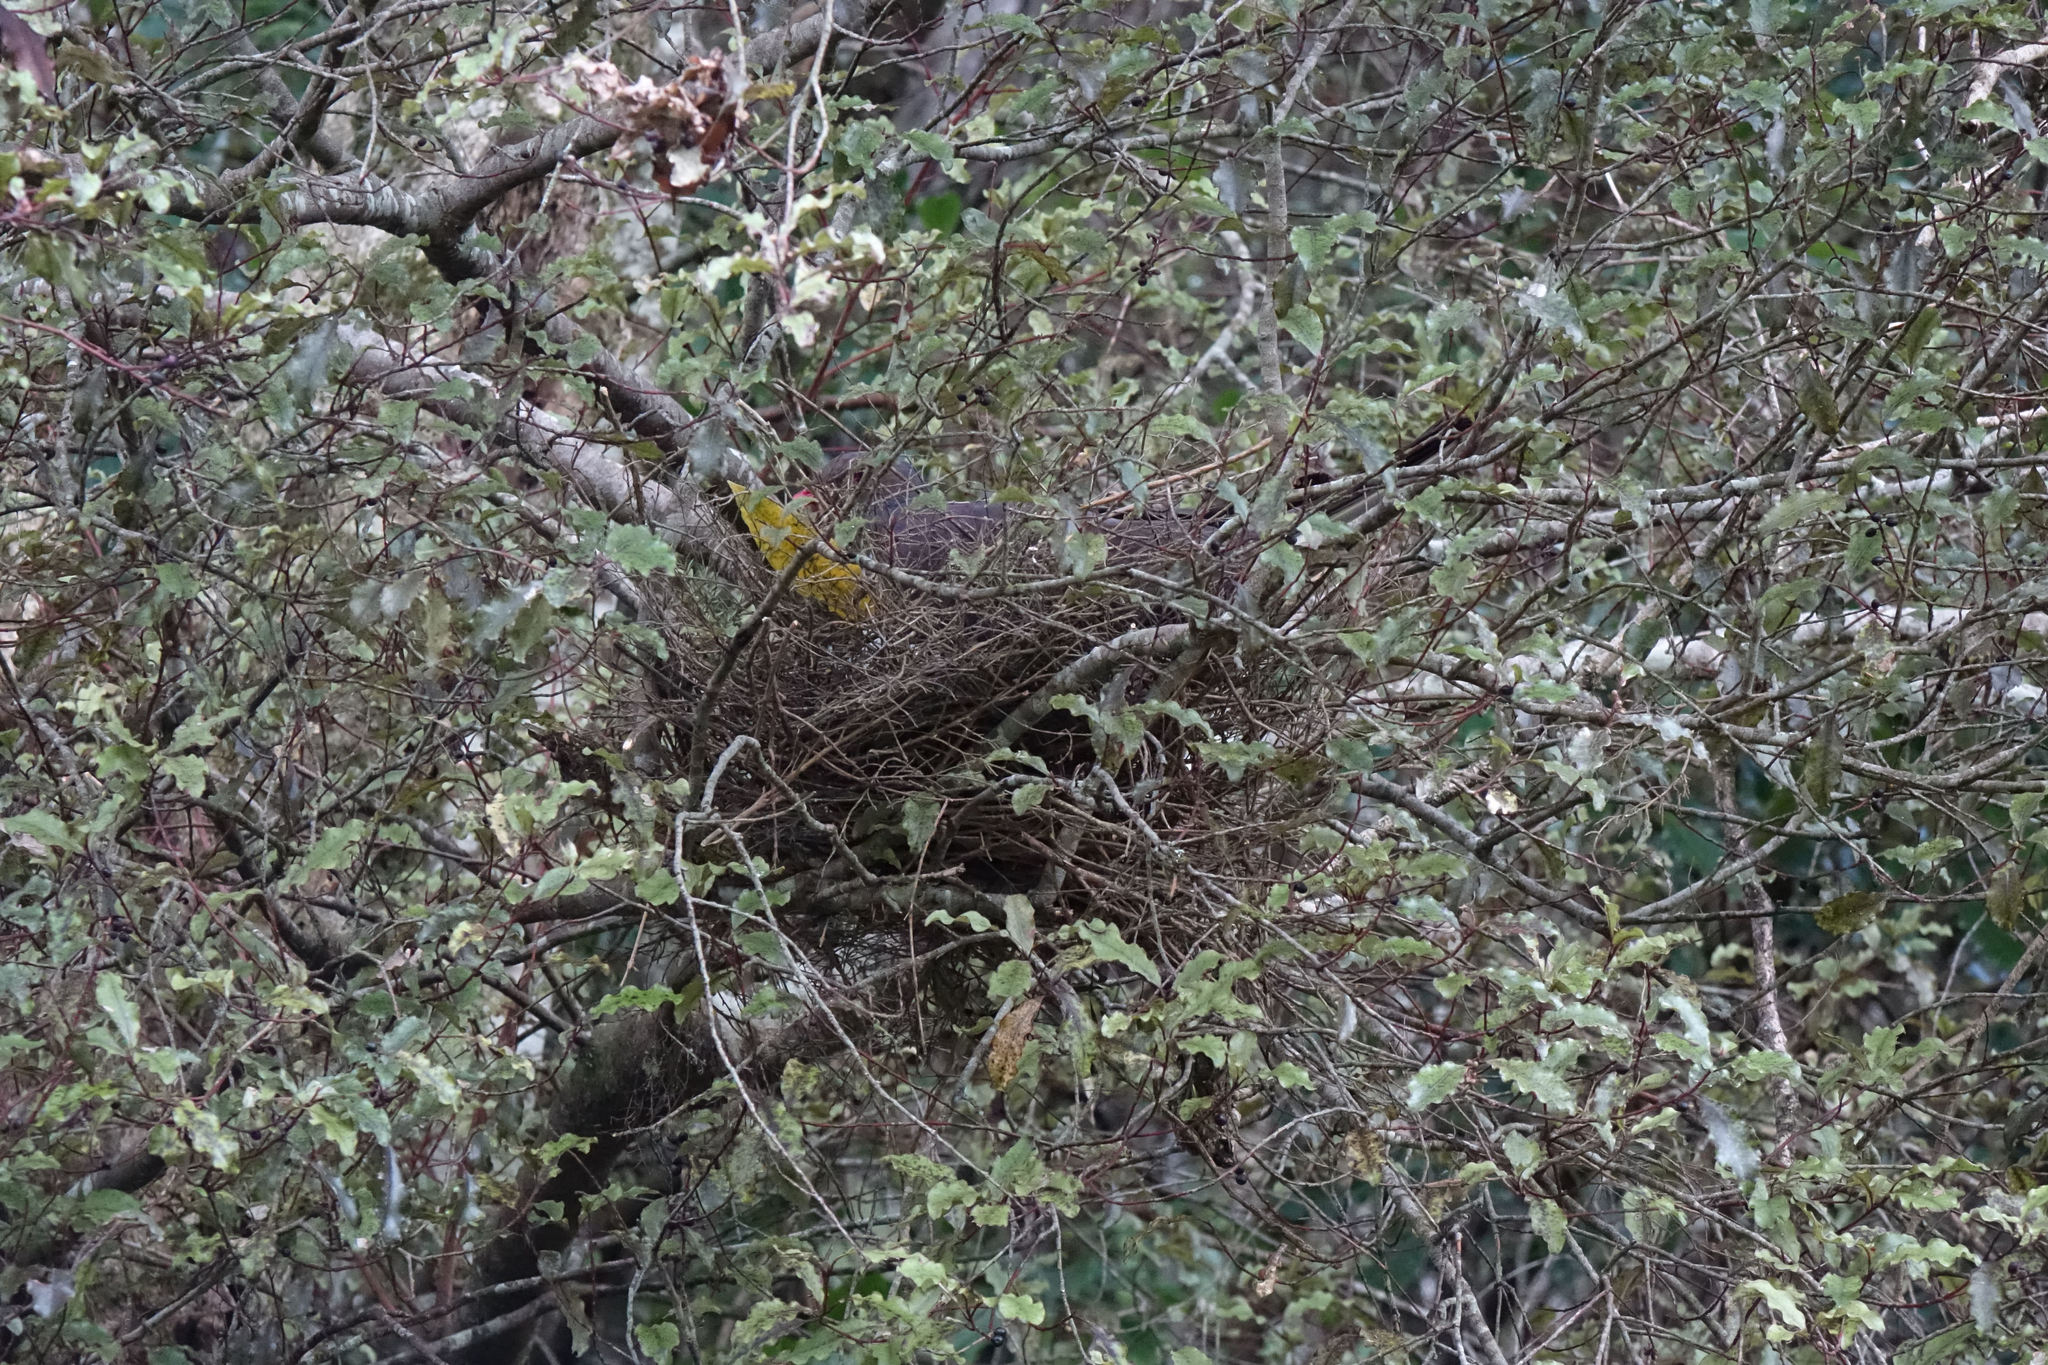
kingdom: Animalia
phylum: Chordata
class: Aves
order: Columbiformes
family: Columbidae
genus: Hemiphaga
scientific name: Hemiphaga novaeseelandiae
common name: New zealand pigeon
